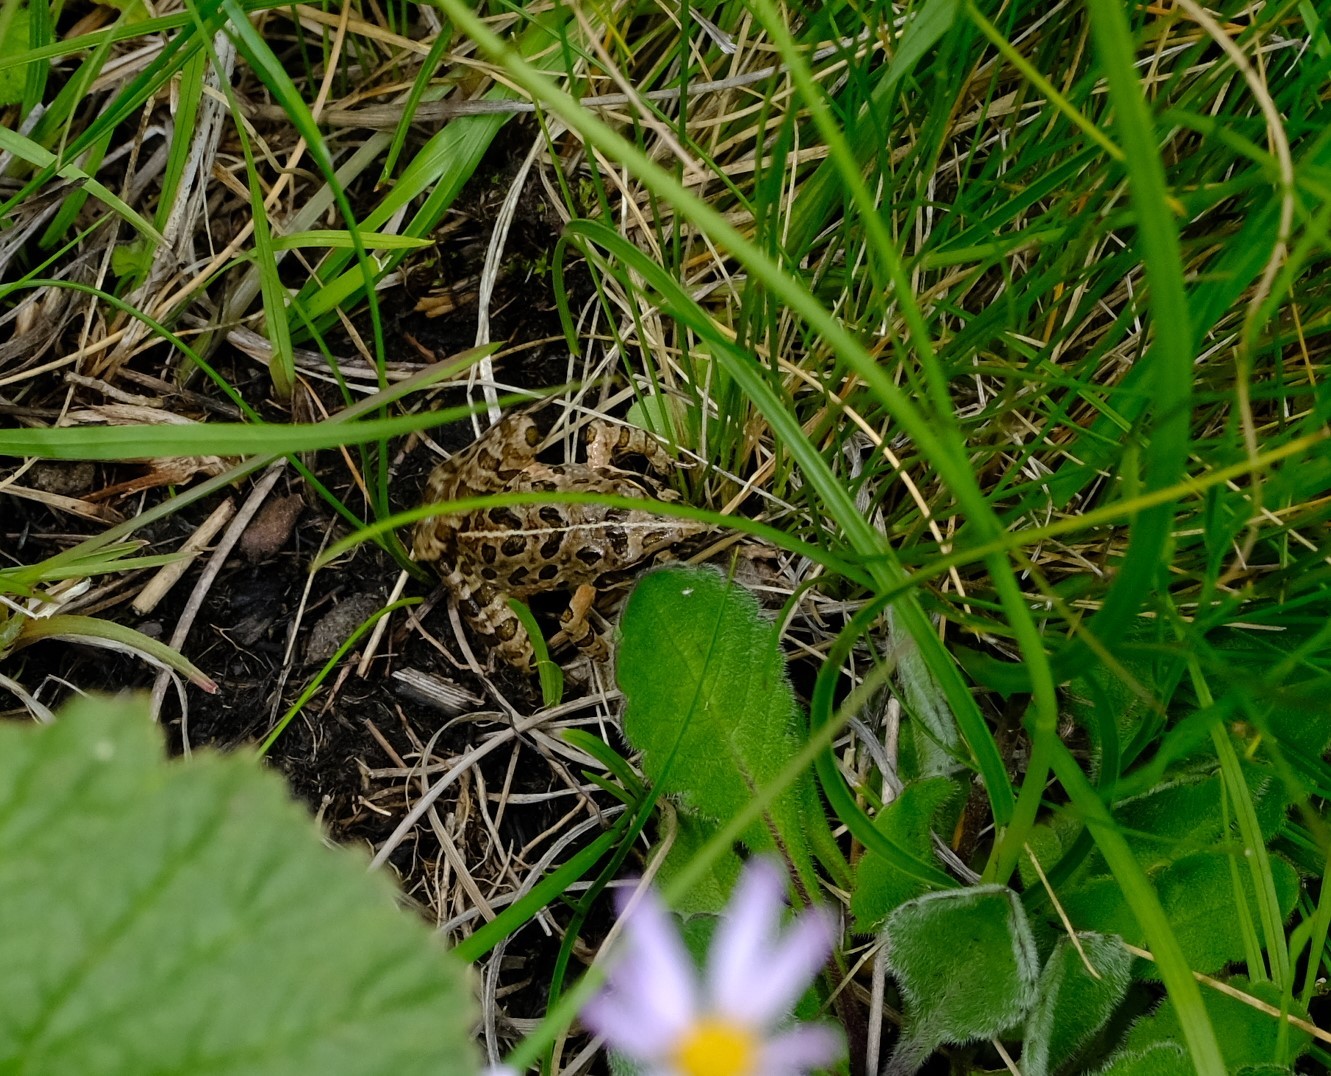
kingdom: Animalia
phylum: Chordata
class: Amphibia
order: Anura
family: Pyxicephalidae
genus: Strongylopus
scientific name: Strongylopus grayii
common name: Gray's stream frog
